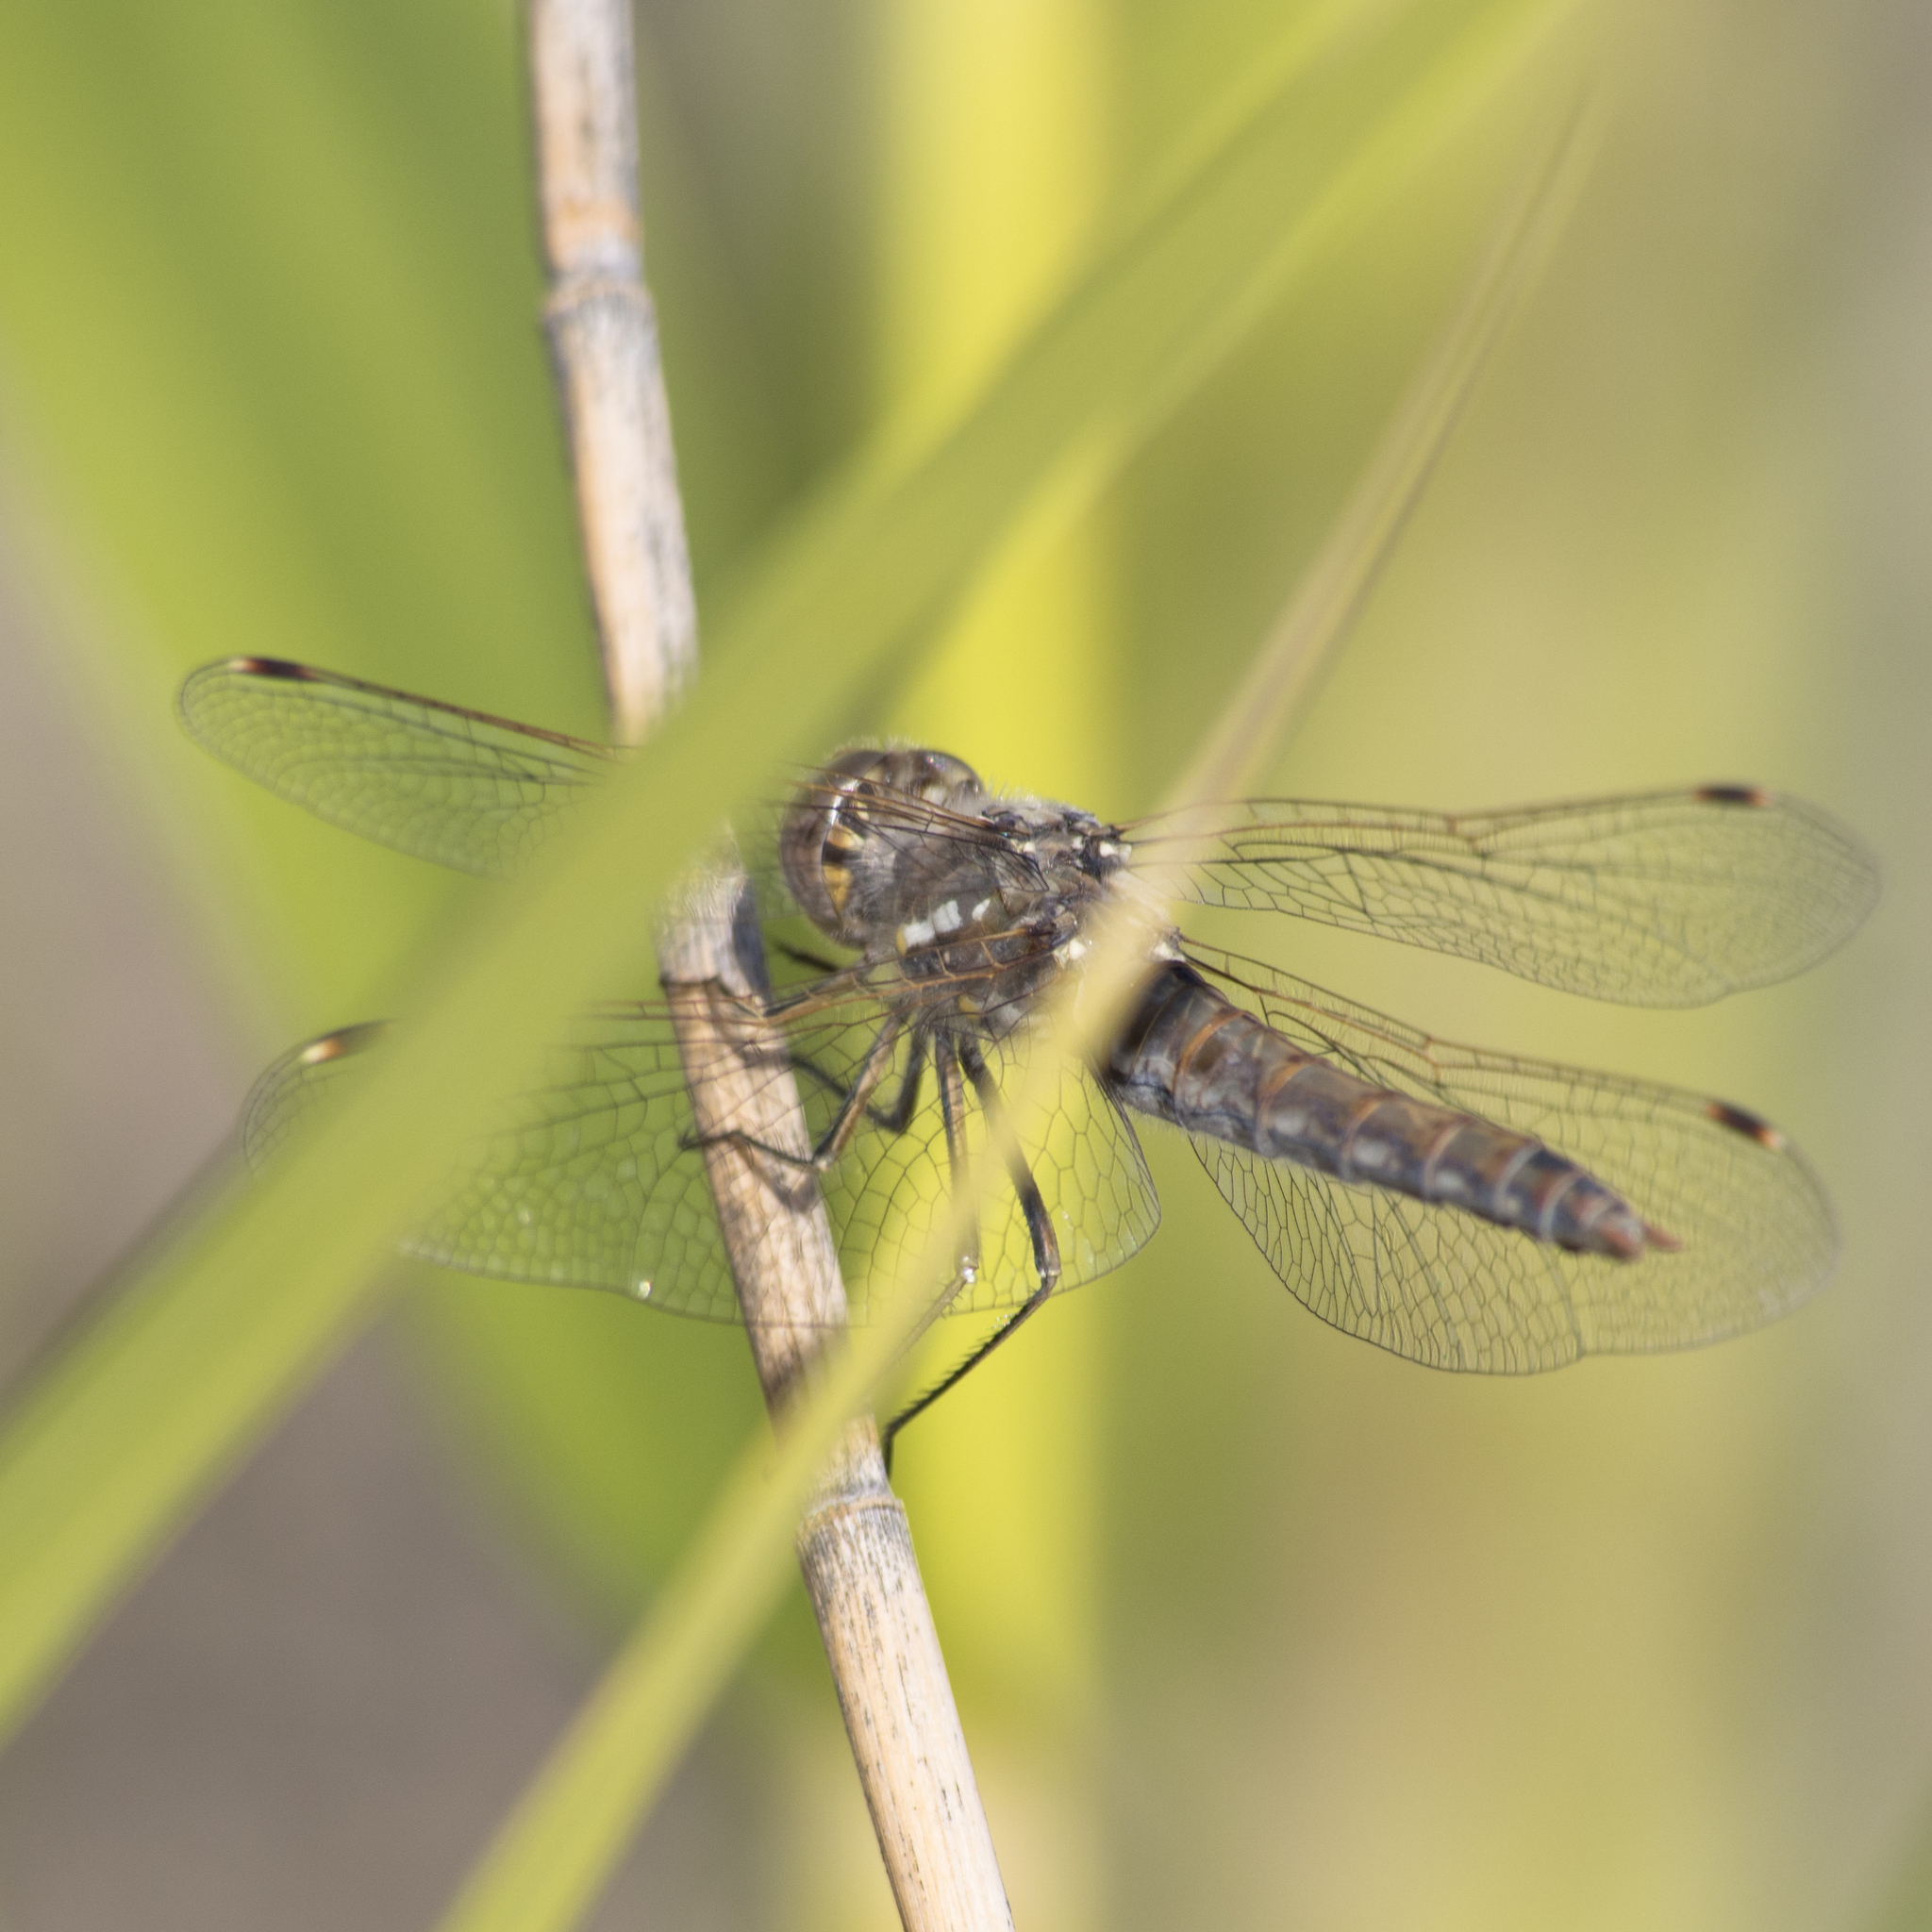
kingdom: Animalia
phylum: Arthropoda
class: Insecta
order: Odonata
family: Libellulidae
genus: Sympetrum
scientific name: Sympetrum corruptum
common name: Variegated meadowhawk
